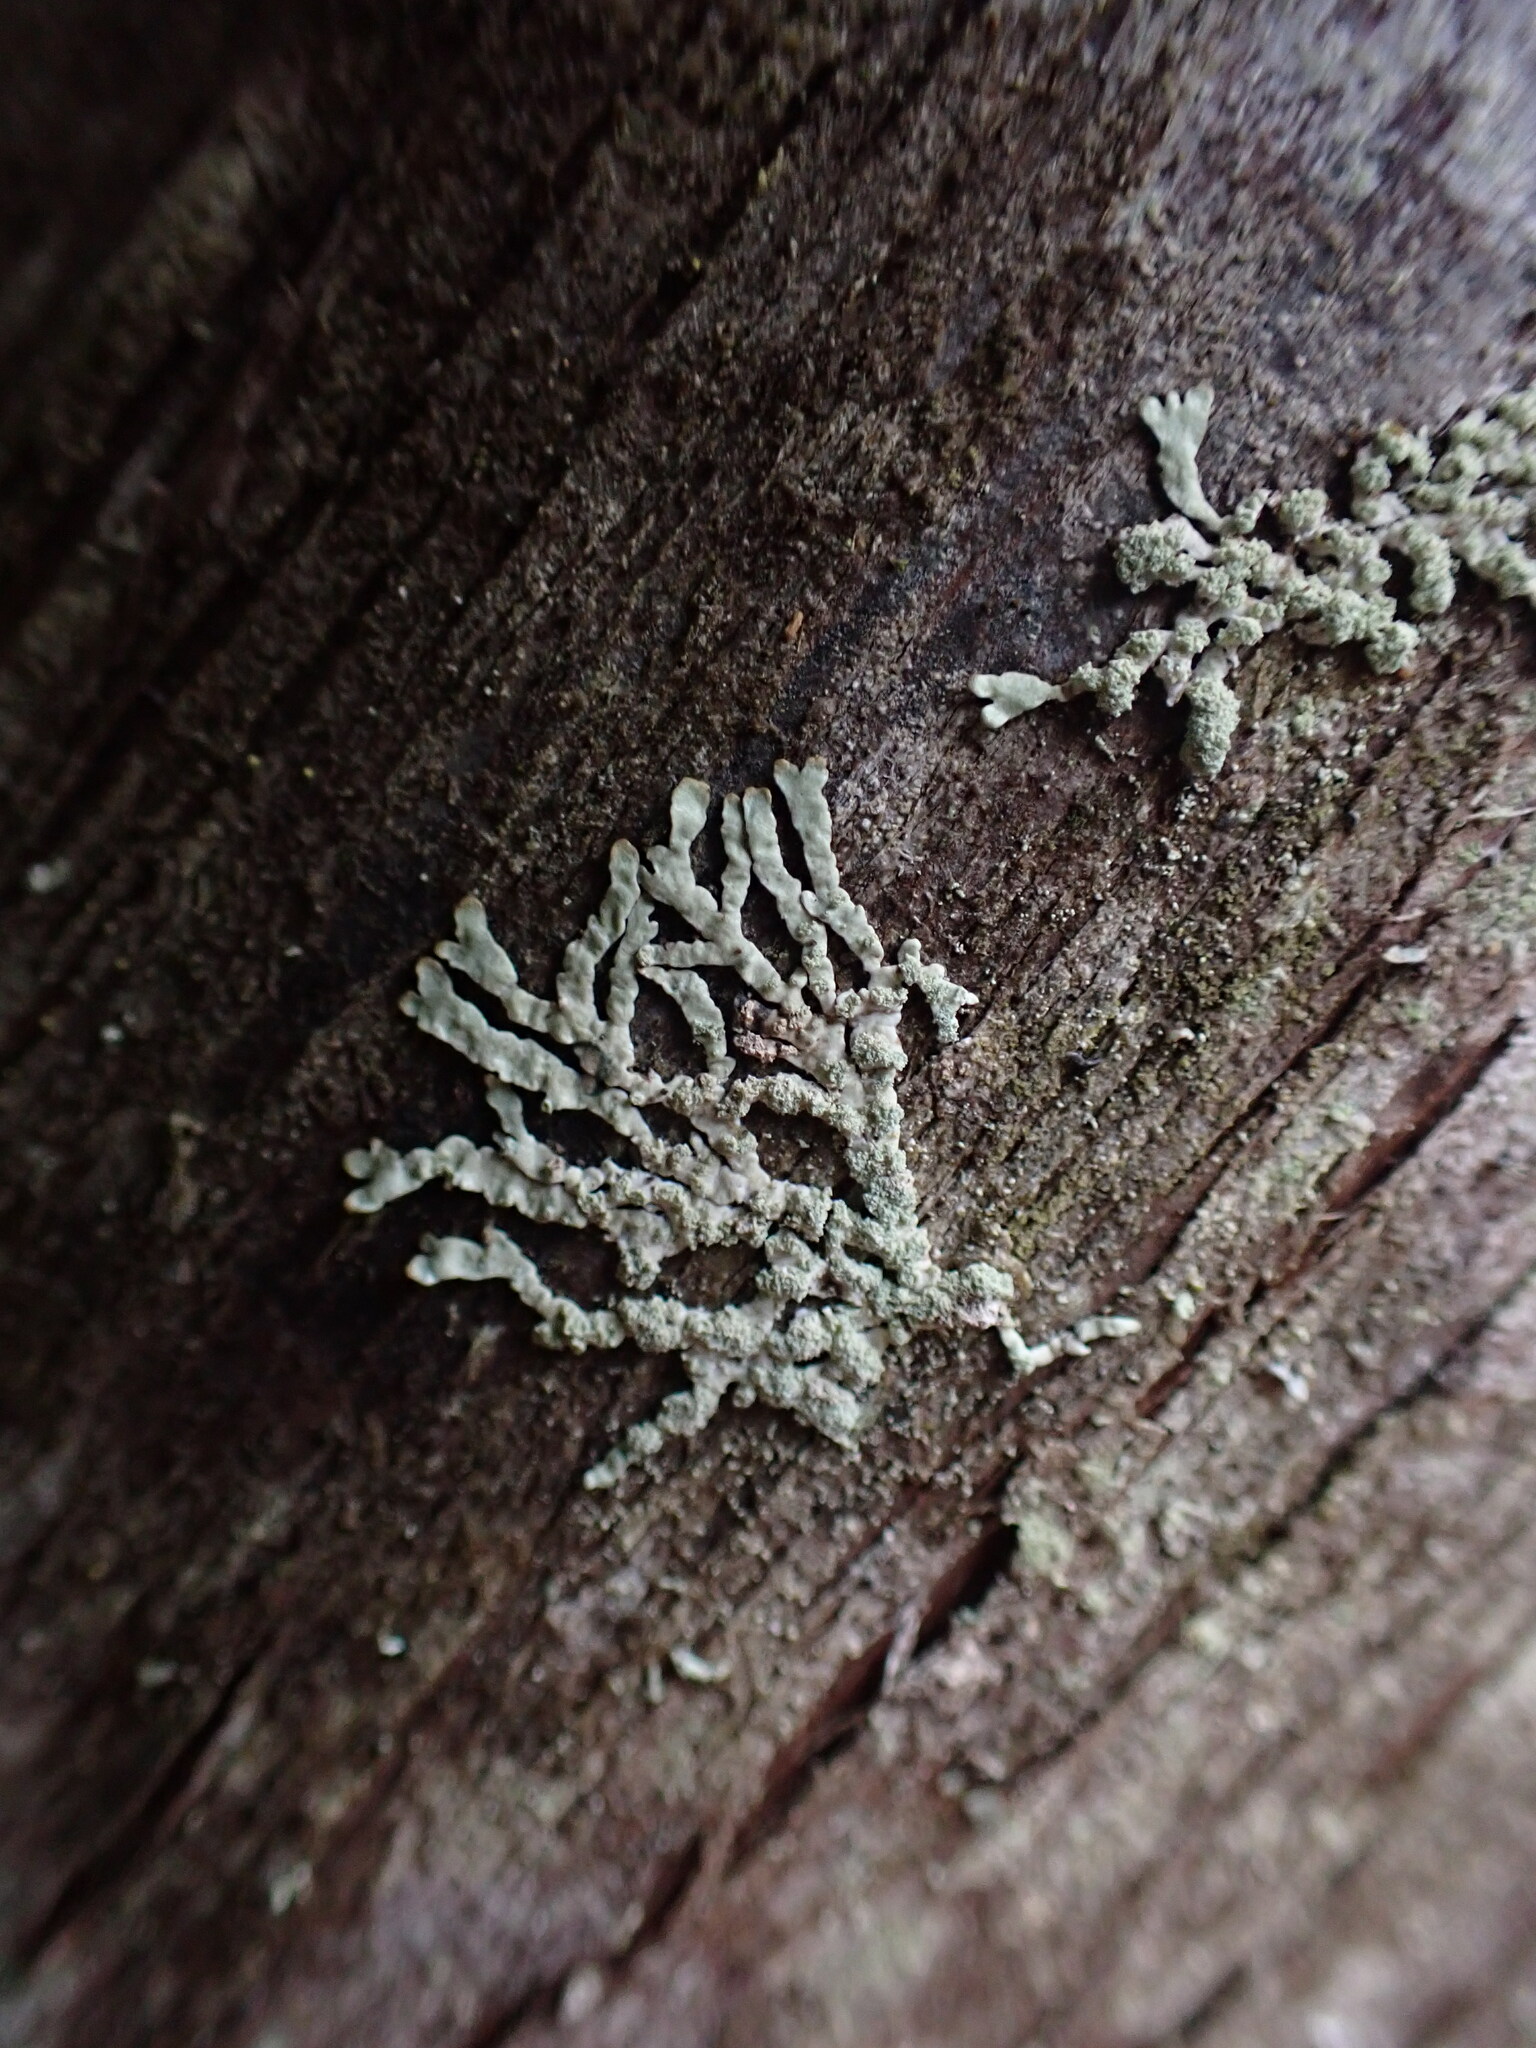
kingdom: Fungi
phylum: Ascomycota
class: Lecanoromycetes
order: Lecanorales
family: Parmeliaceae
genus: Parmeliopsis
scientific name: Parmeliopsis hyperopta
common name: Grey starburst lichen
